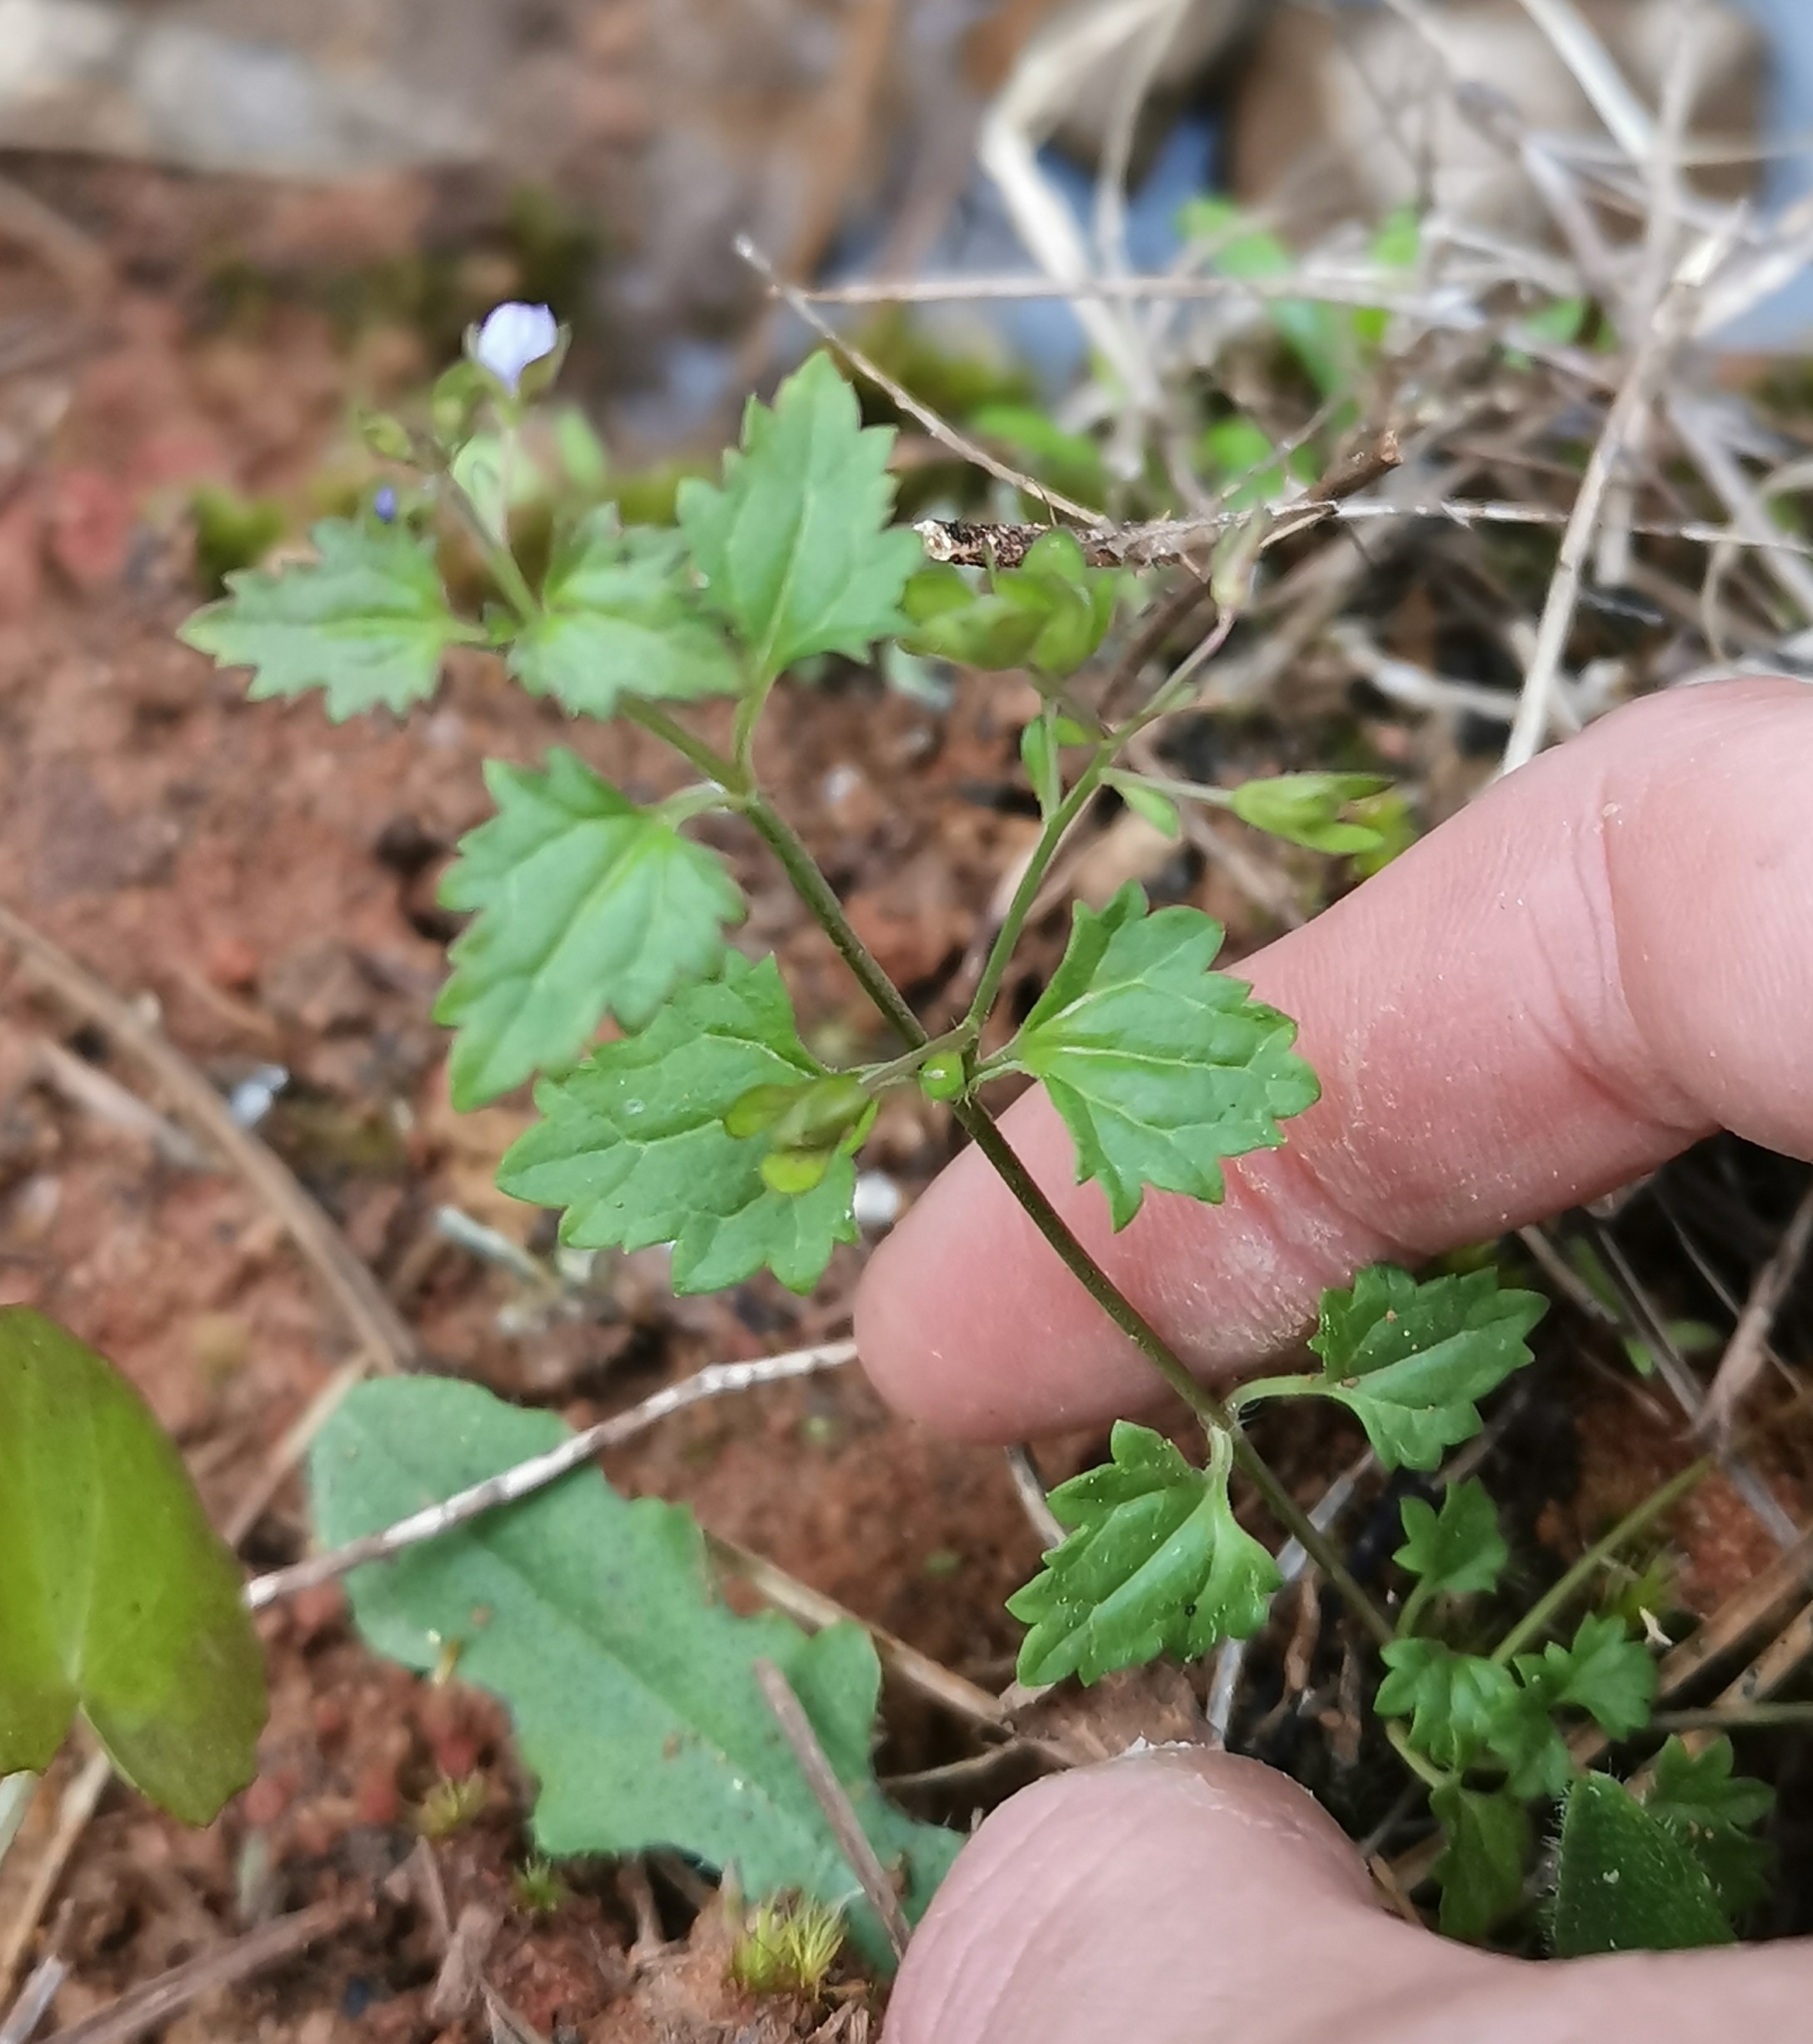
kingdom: Plantae
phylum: Tracheophyta
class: Magnoliopsida
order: Lamiales
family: Plantaginaceae
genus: Veronica
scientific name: Veronica plebeia
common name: Speedwell
